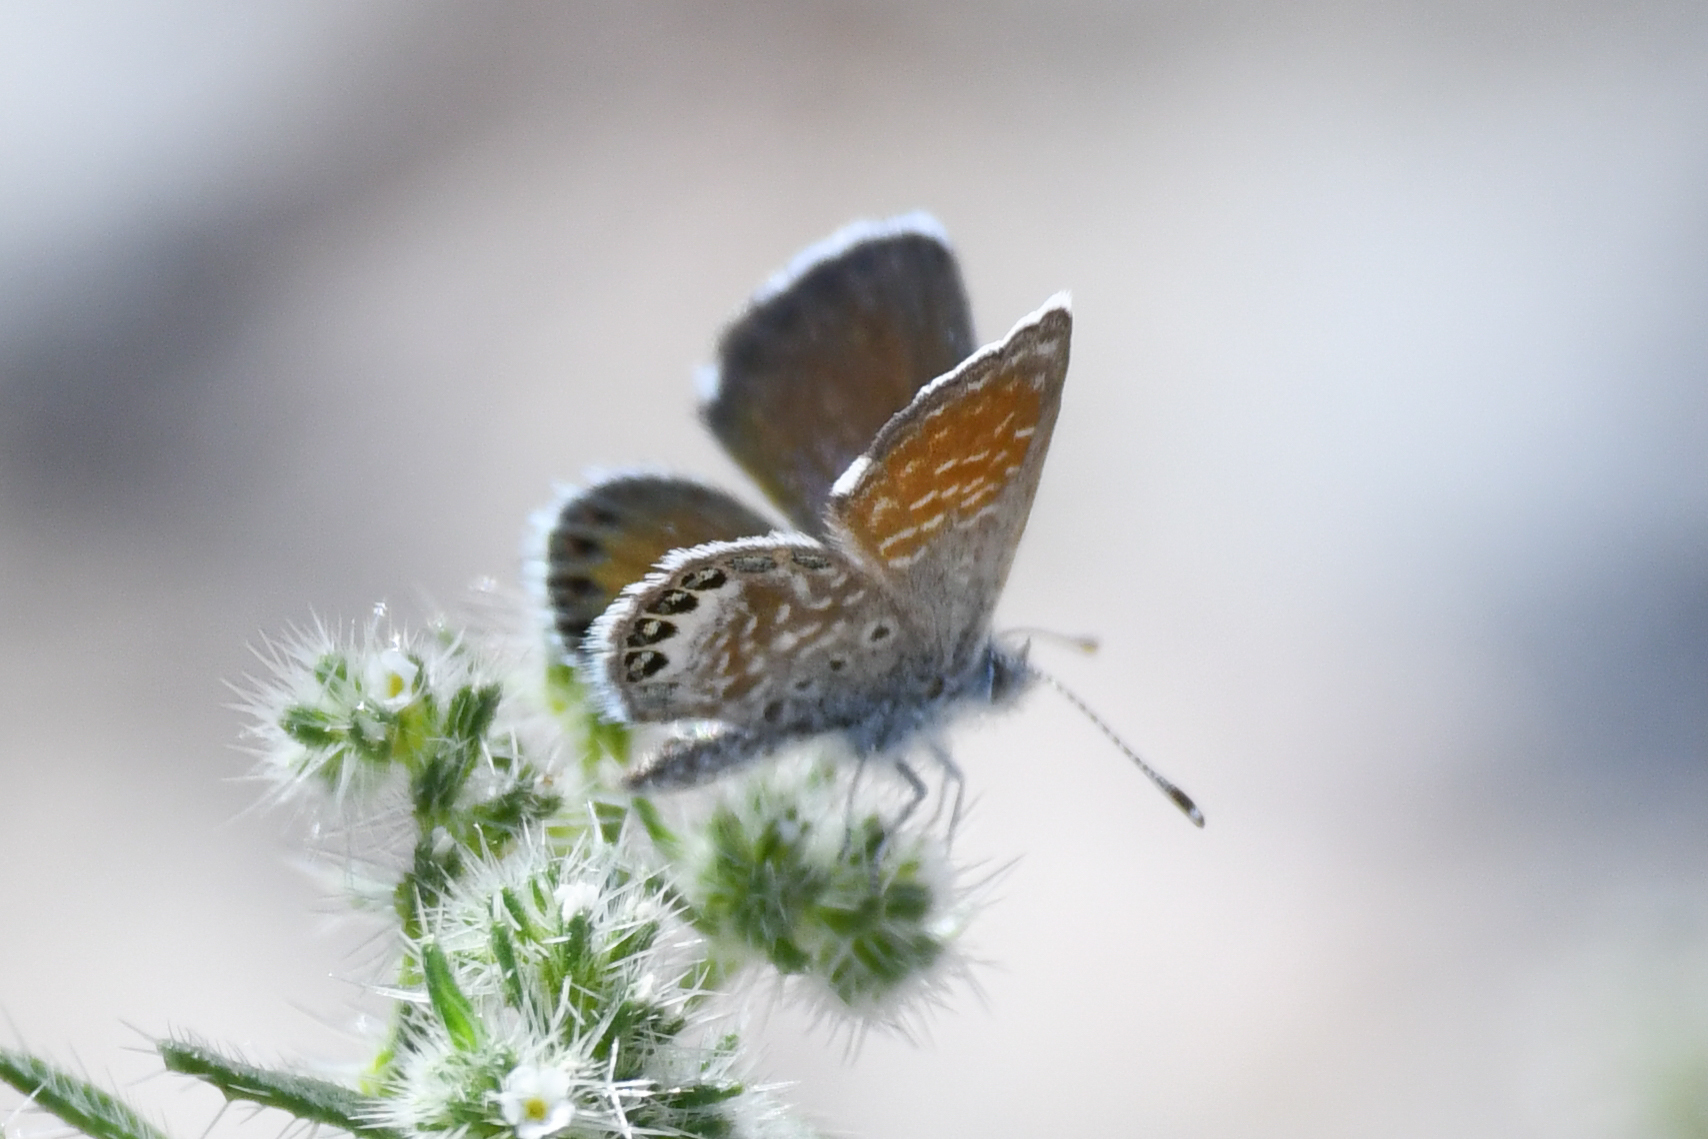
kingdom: Animalia
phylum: Arthropoda
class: Insecta
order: Lepidoptera
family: Lycaenidae
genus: Brephidium
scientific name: Brephidium exilis
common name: Pygmy blue
